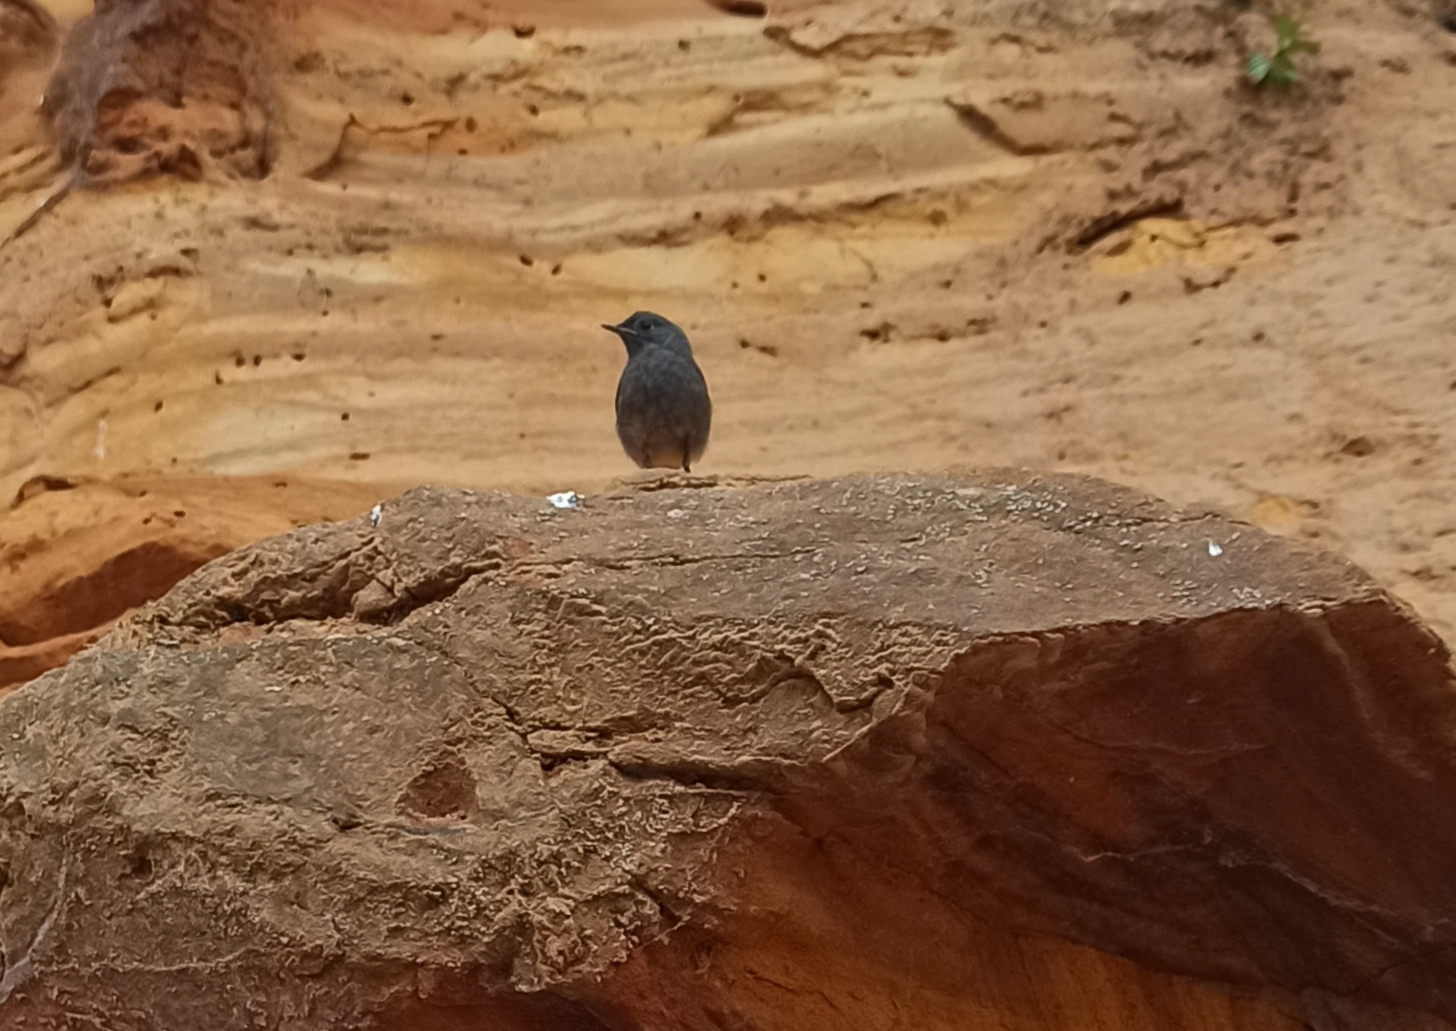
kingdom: Animalia
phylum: Chordata
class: Aves
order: Passeriformes
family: Muscicapidae
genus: Phoenicurus
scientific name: Phoenicurus ochruros
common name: Black redstart
